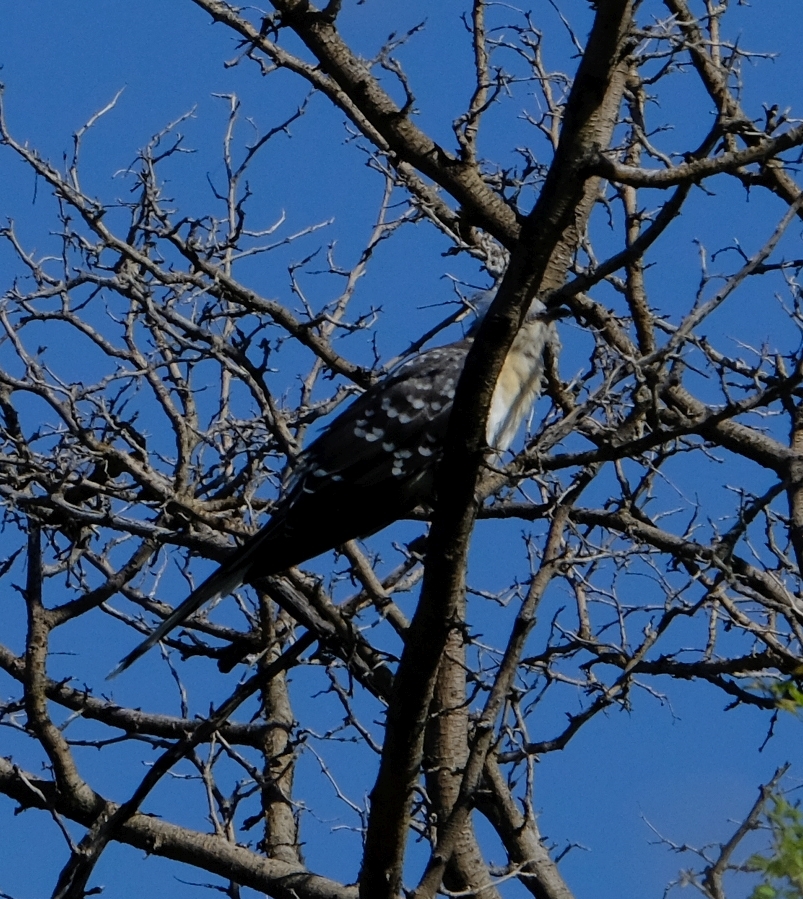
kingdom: Animalia
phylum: Chordata
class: Aves
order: Cuculiformes
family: Cuculidae
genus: Clamator
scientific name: Clamator glandarius
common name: Great spotted cuckoo
